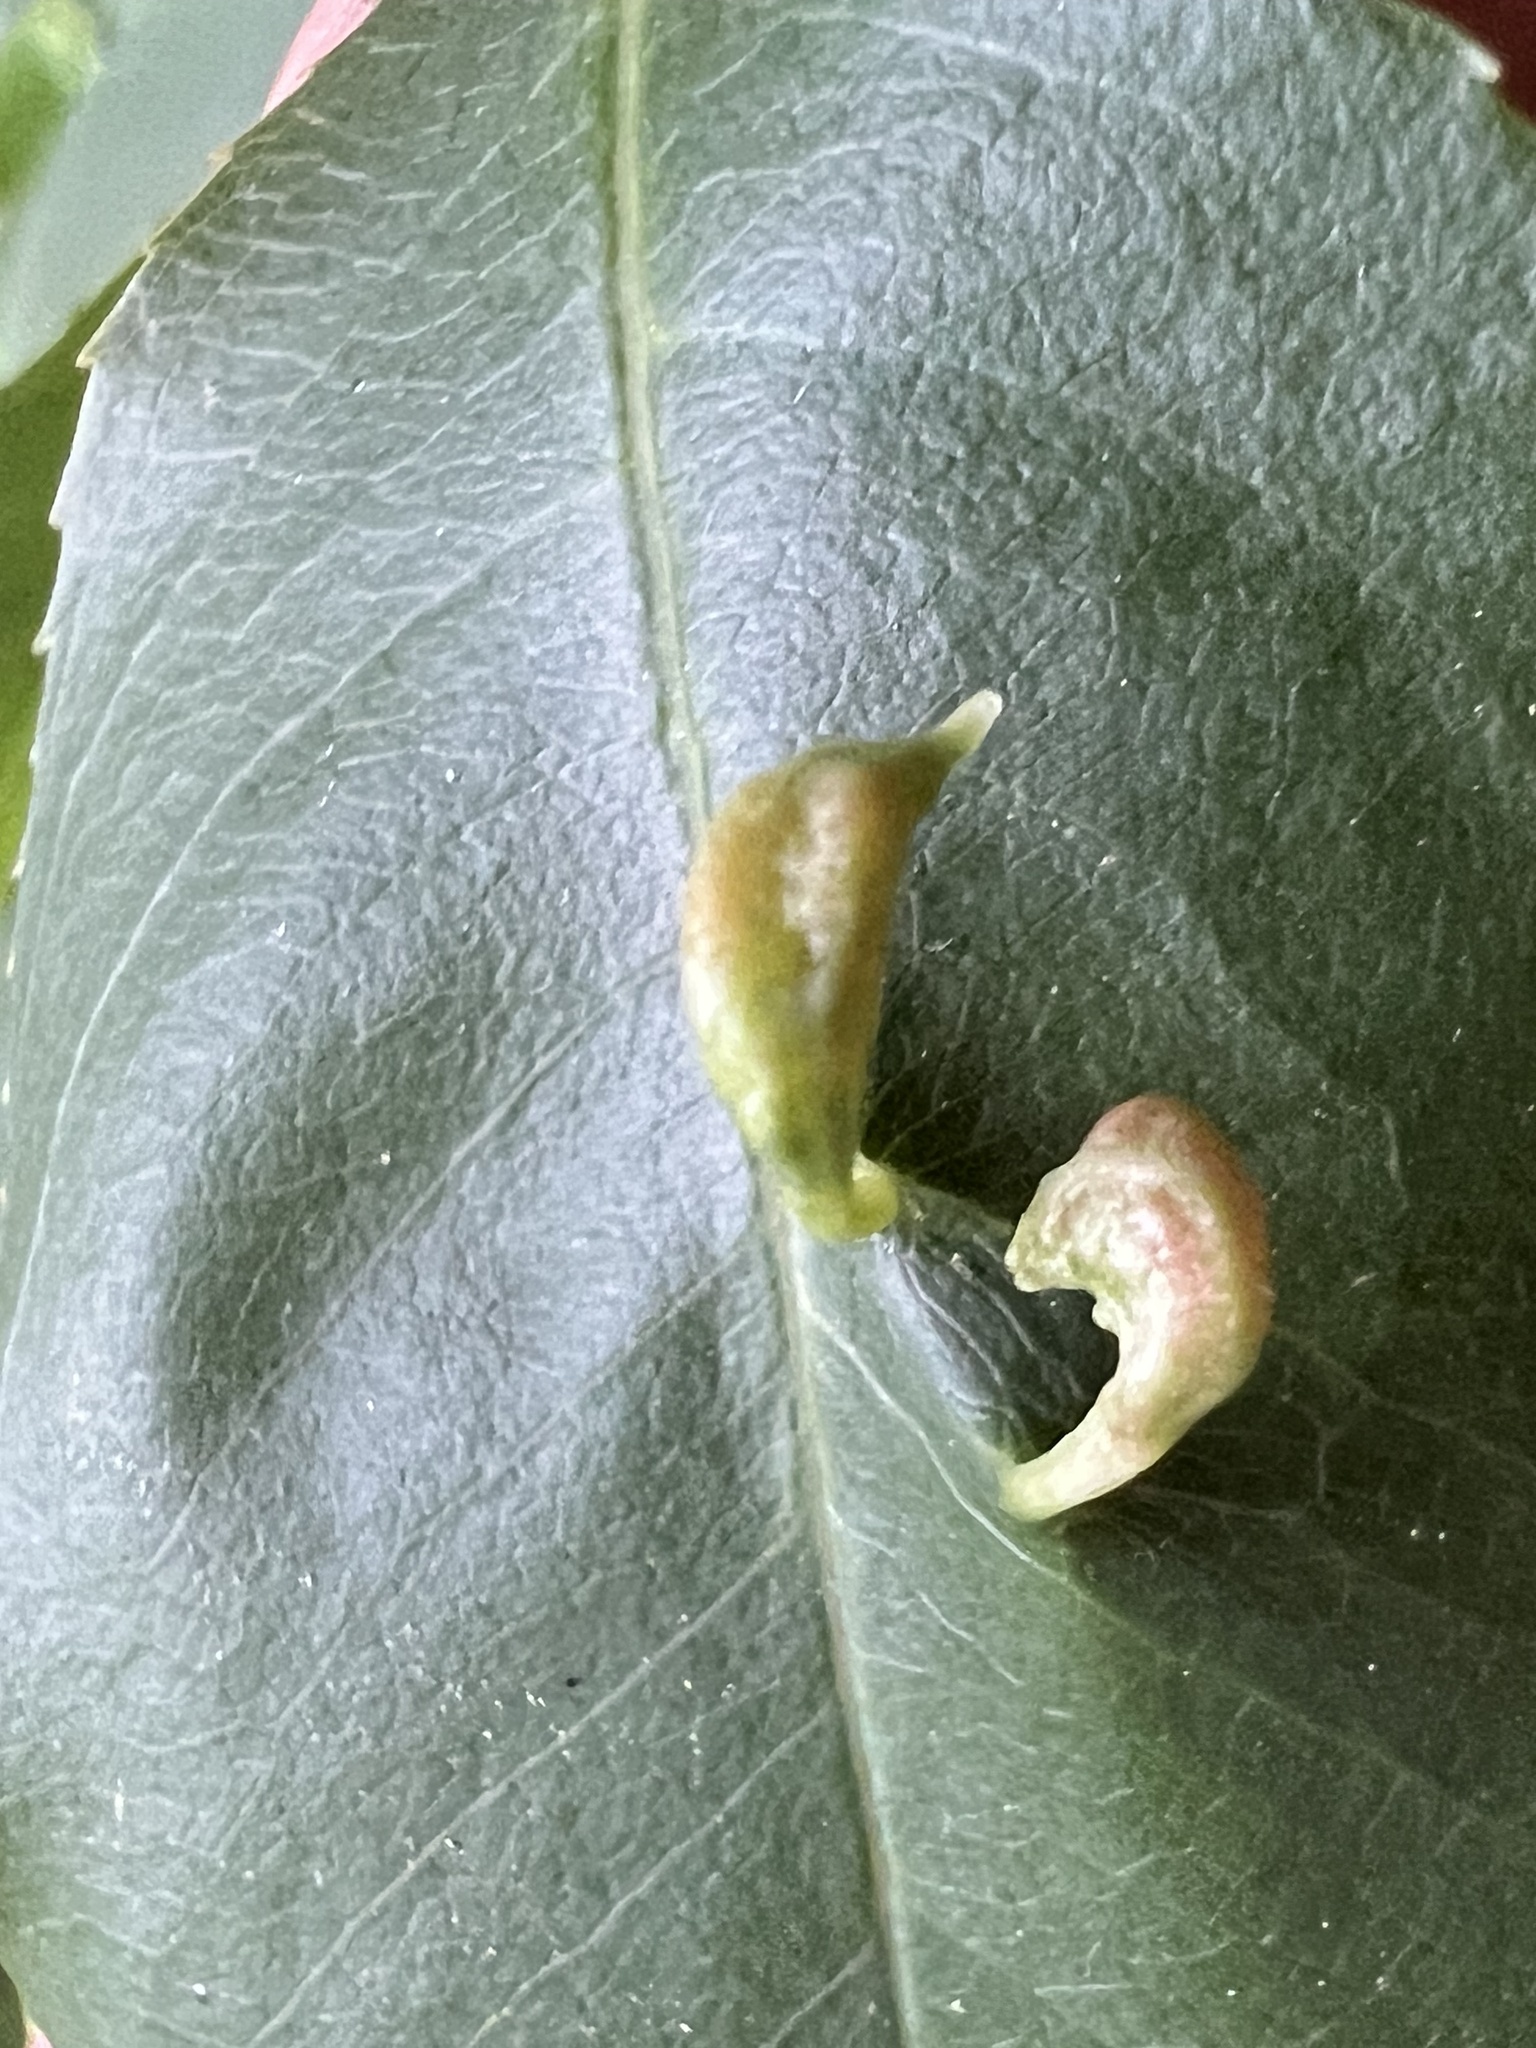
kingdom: Animalia
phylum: Arthropoda
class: Arachnida
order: Trombidiformes
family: Eriophyidae
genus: Eriophyes
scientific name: Eriophyes
